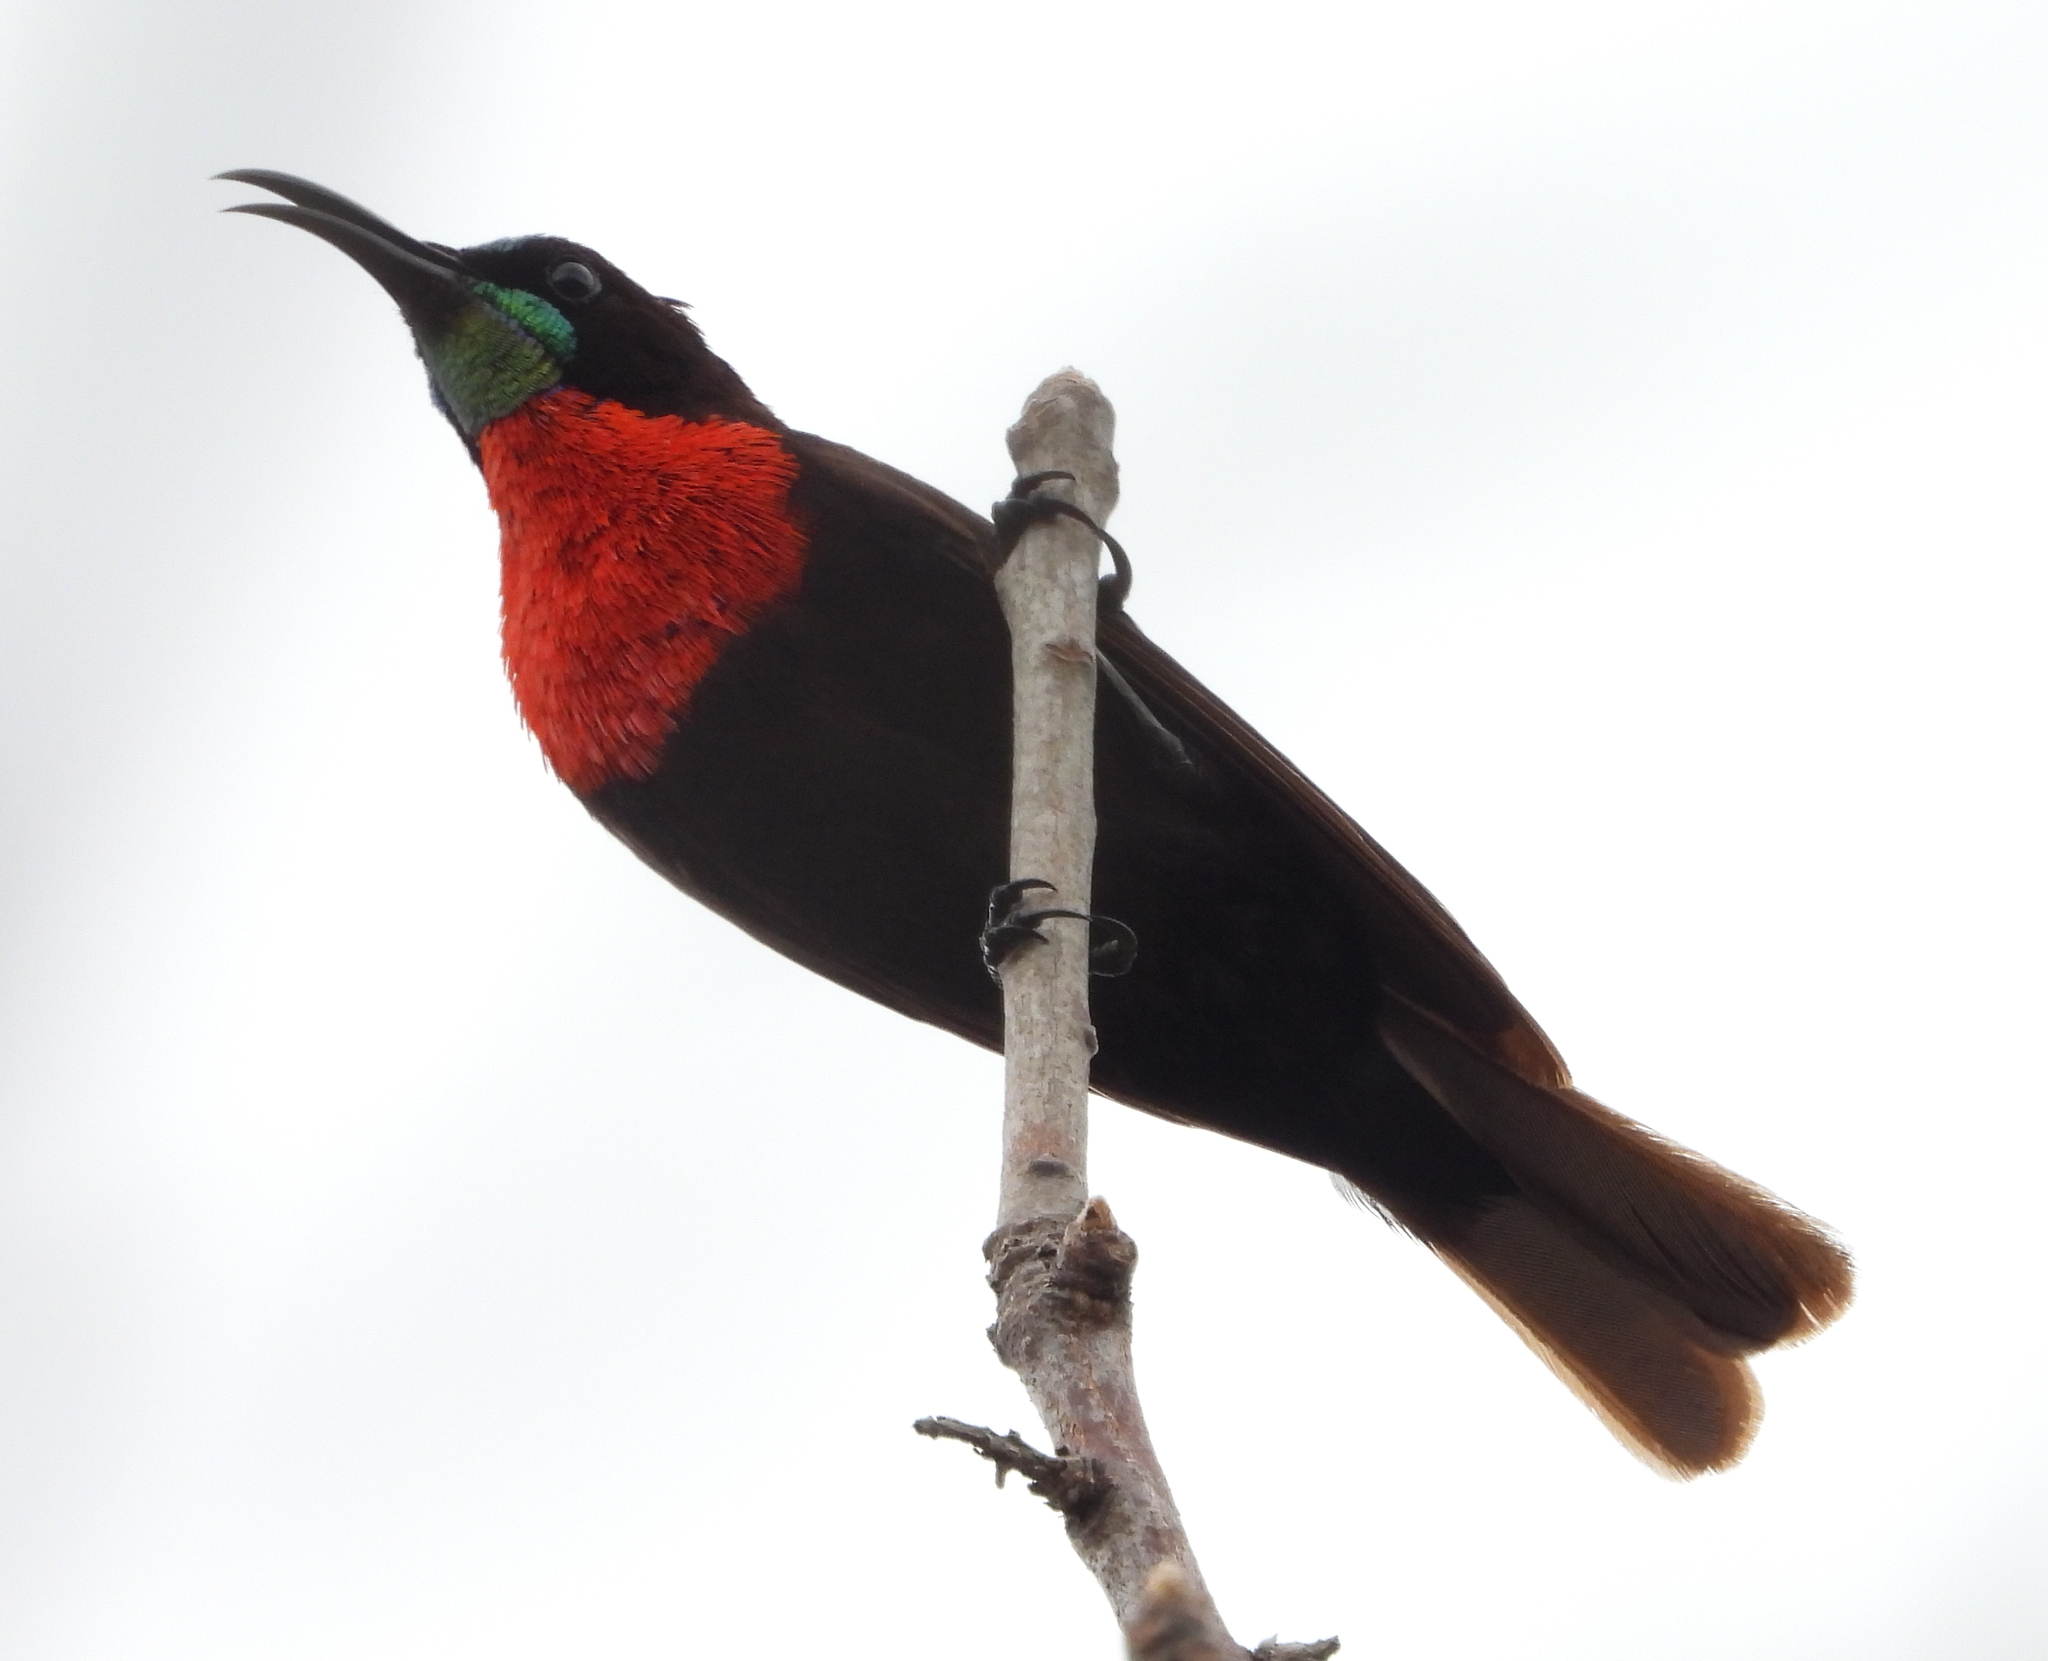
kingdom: Animalia
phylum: Chordata
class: Aves
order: Passeriformes
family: Nectariniidae
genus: Chalcomitra
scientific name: Chalcomitra senegalensis
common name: Scarlet-chested sunbird
